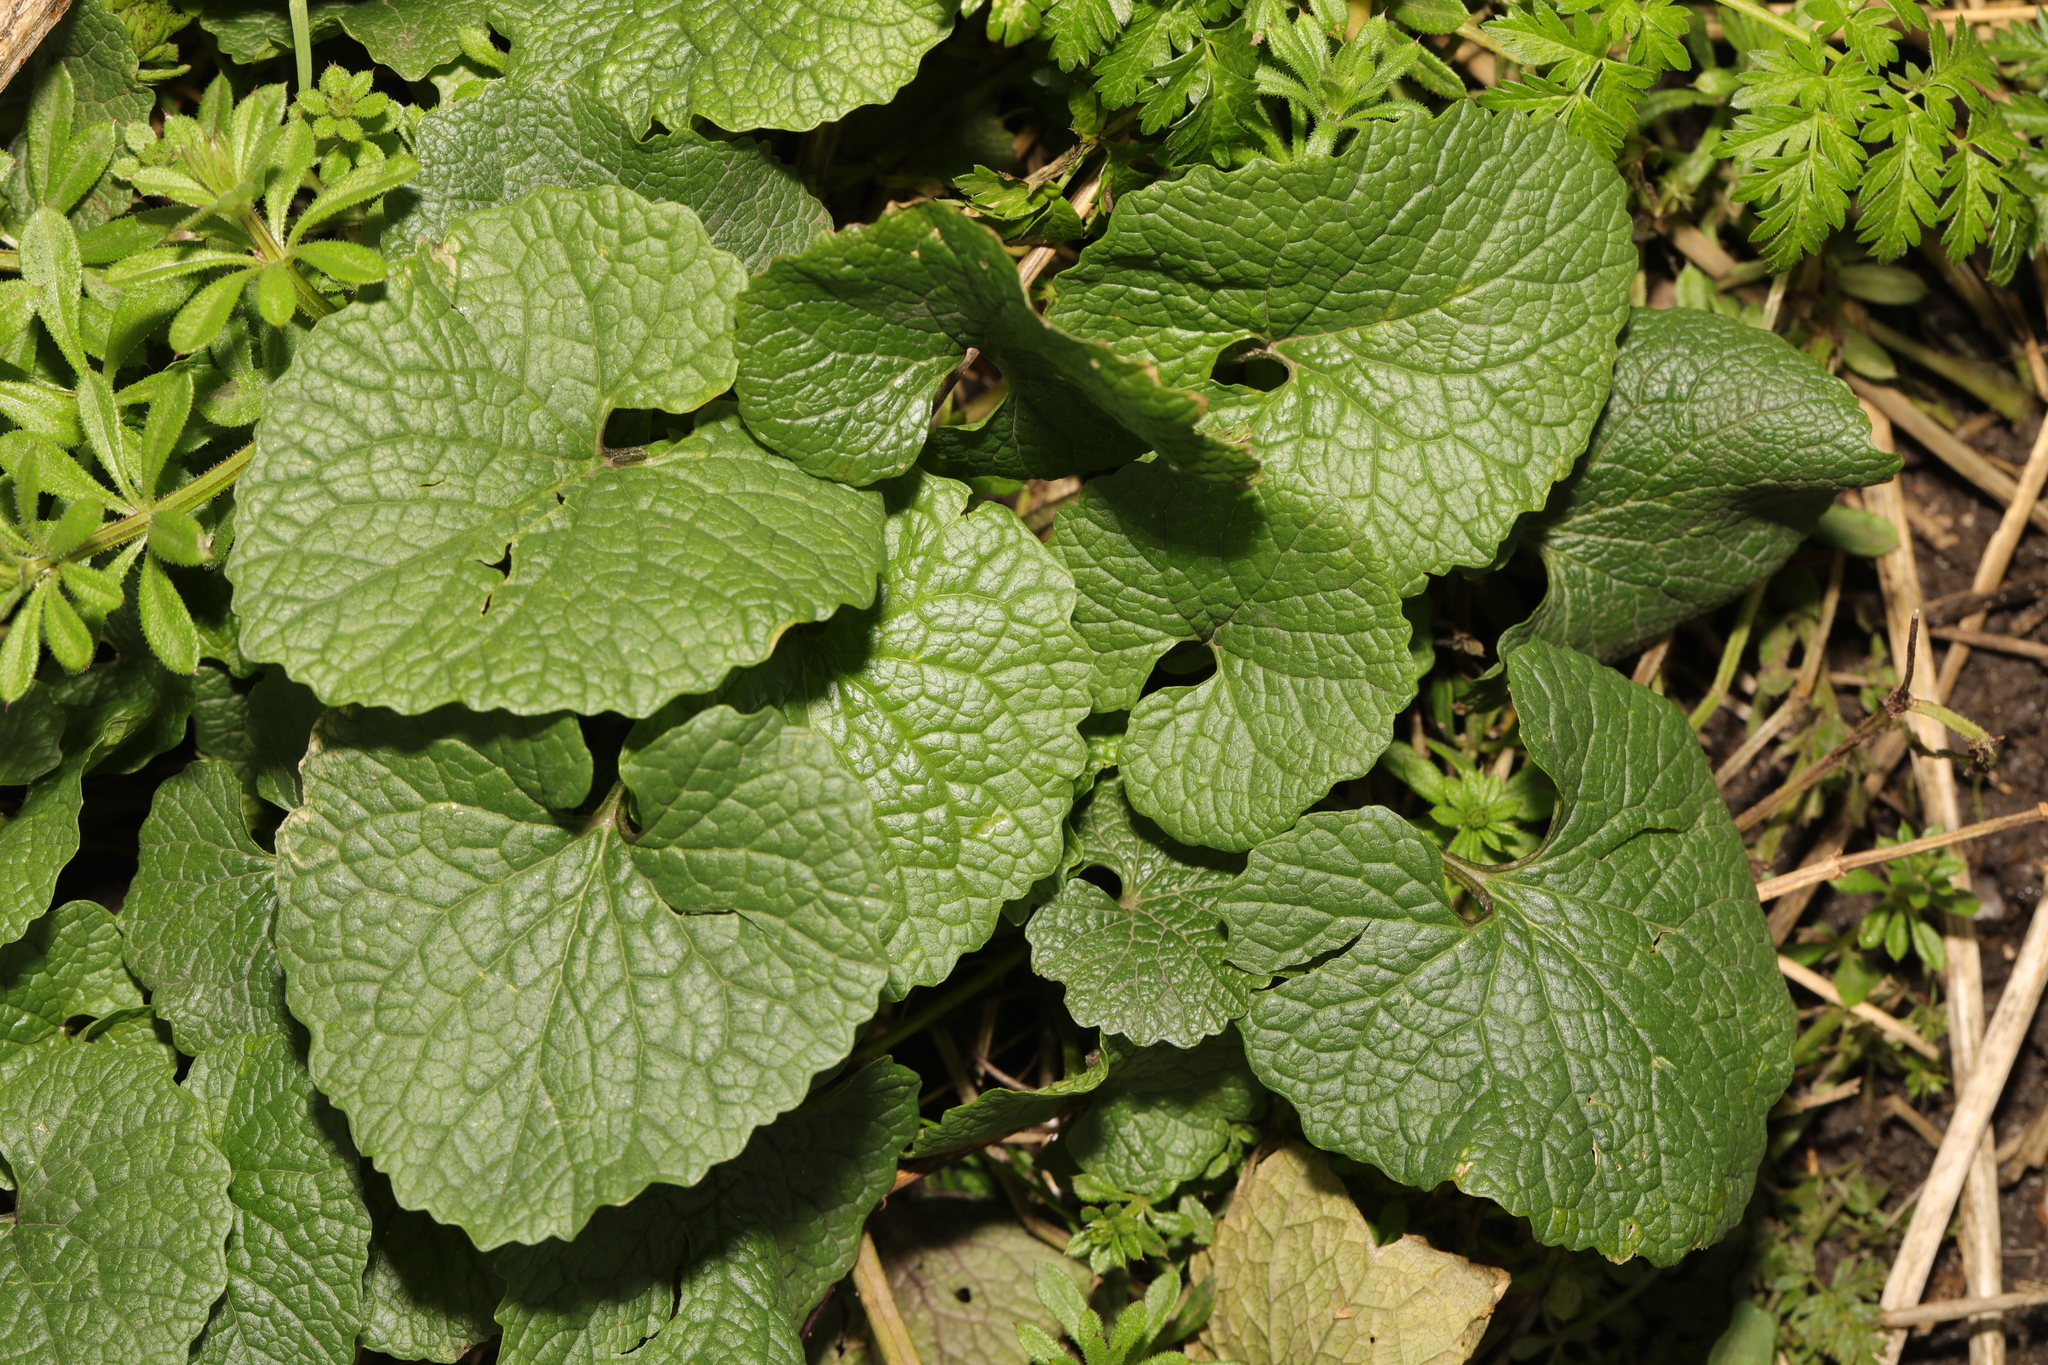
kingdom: Plantae
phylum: Tracheophyta
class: Magnoliopsida
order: Brassicales
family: Brassicaceae
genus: Alliaria
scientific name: Alliaria petiolata
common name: Garlic mustard
